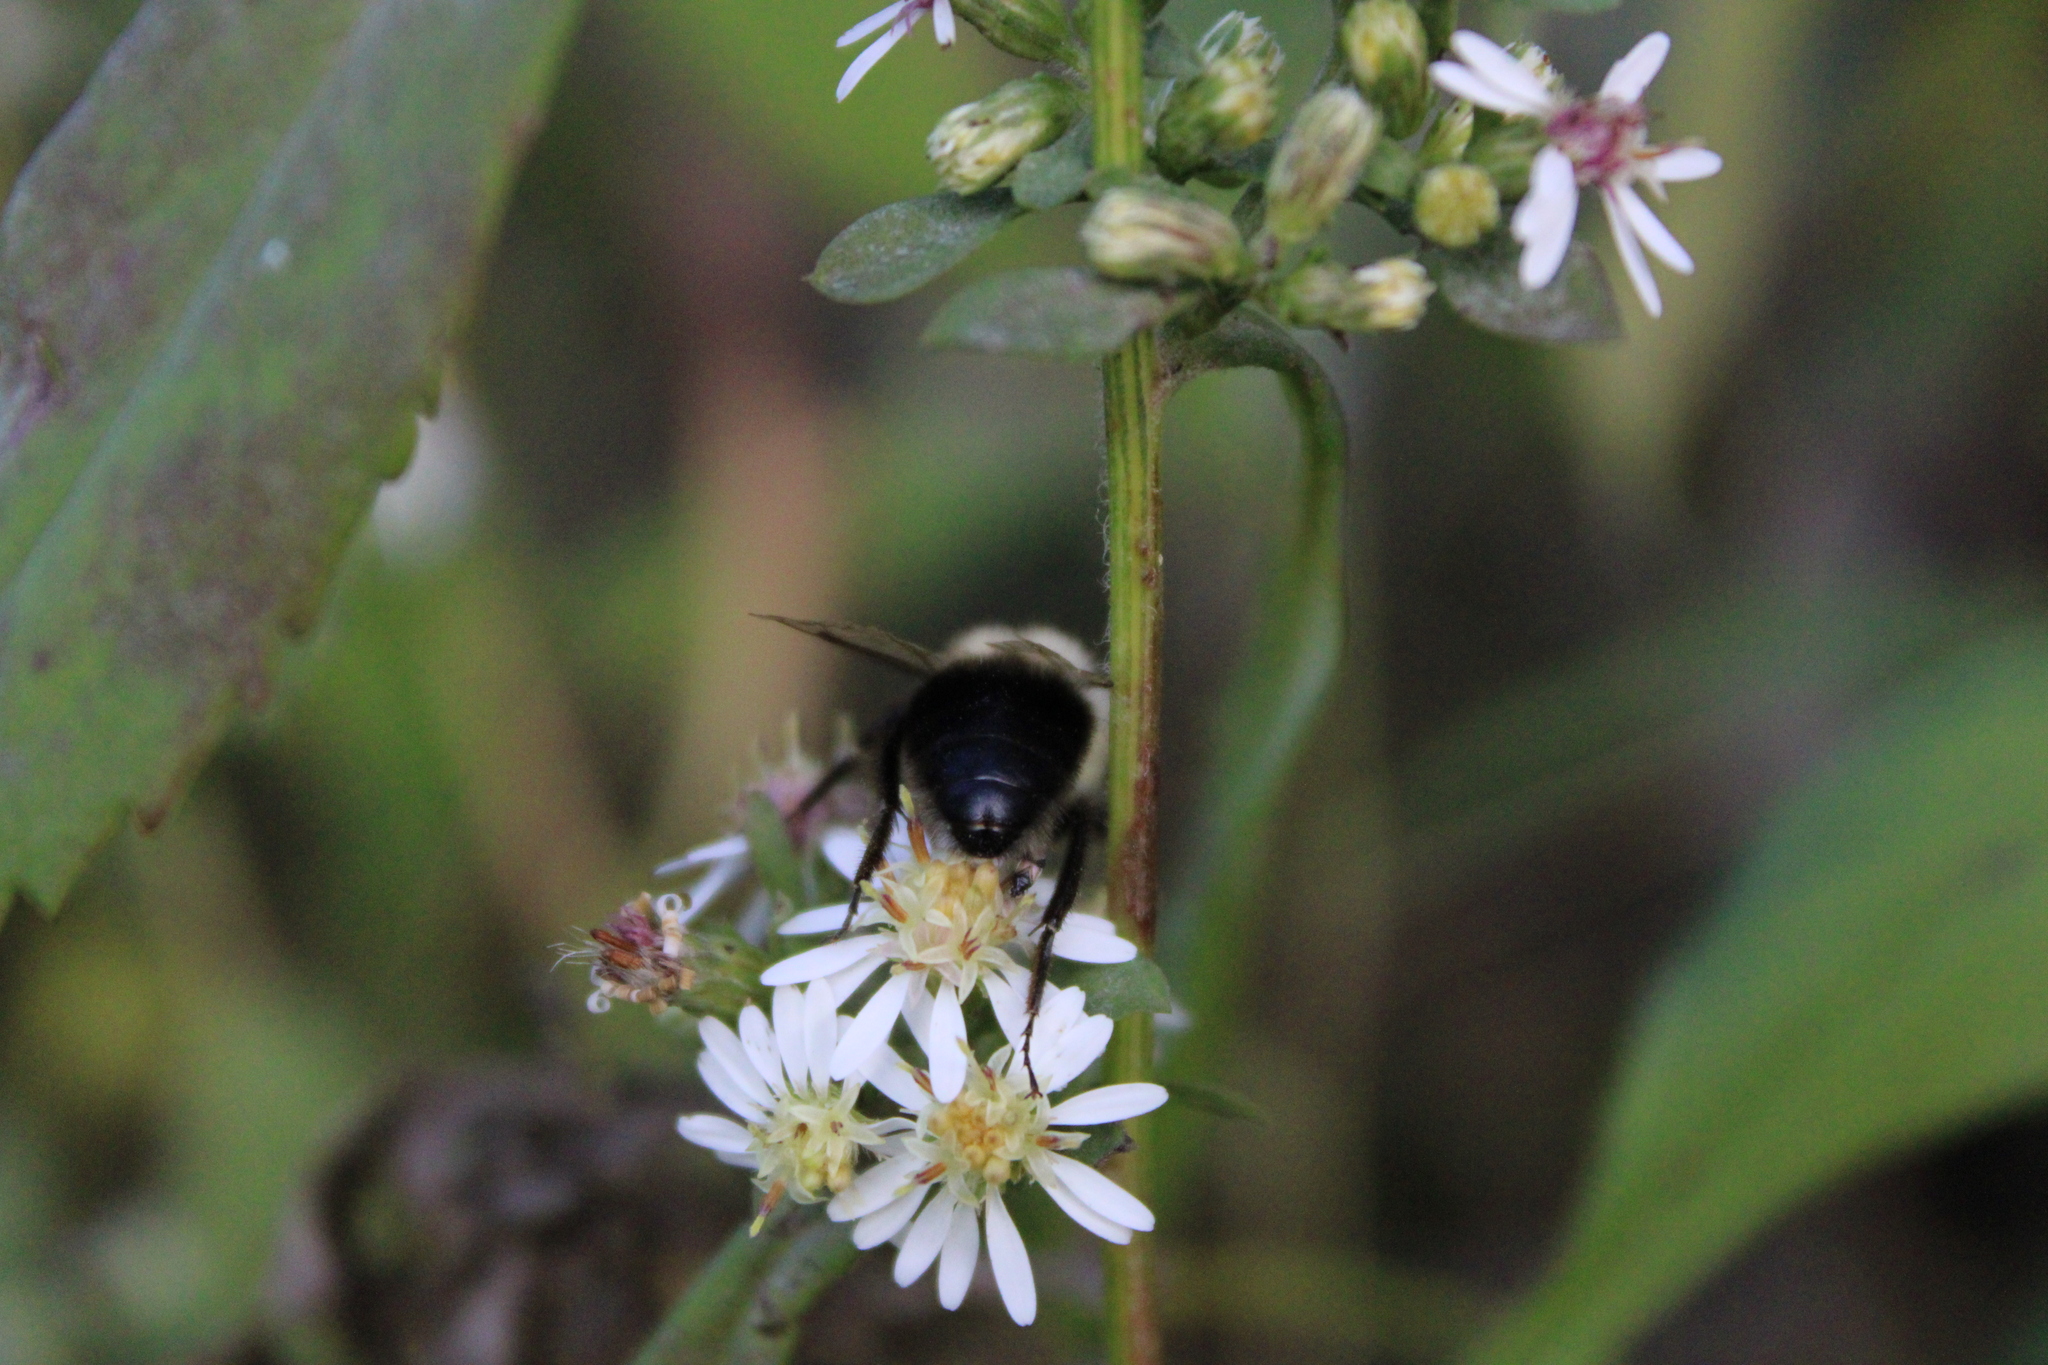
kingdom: Animalia
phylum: Arthropoda
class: Insecta
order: Hymenoptera
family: Apidae
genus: Bombus
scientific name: Bombus impatiens
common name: Common eastern bumble bee
